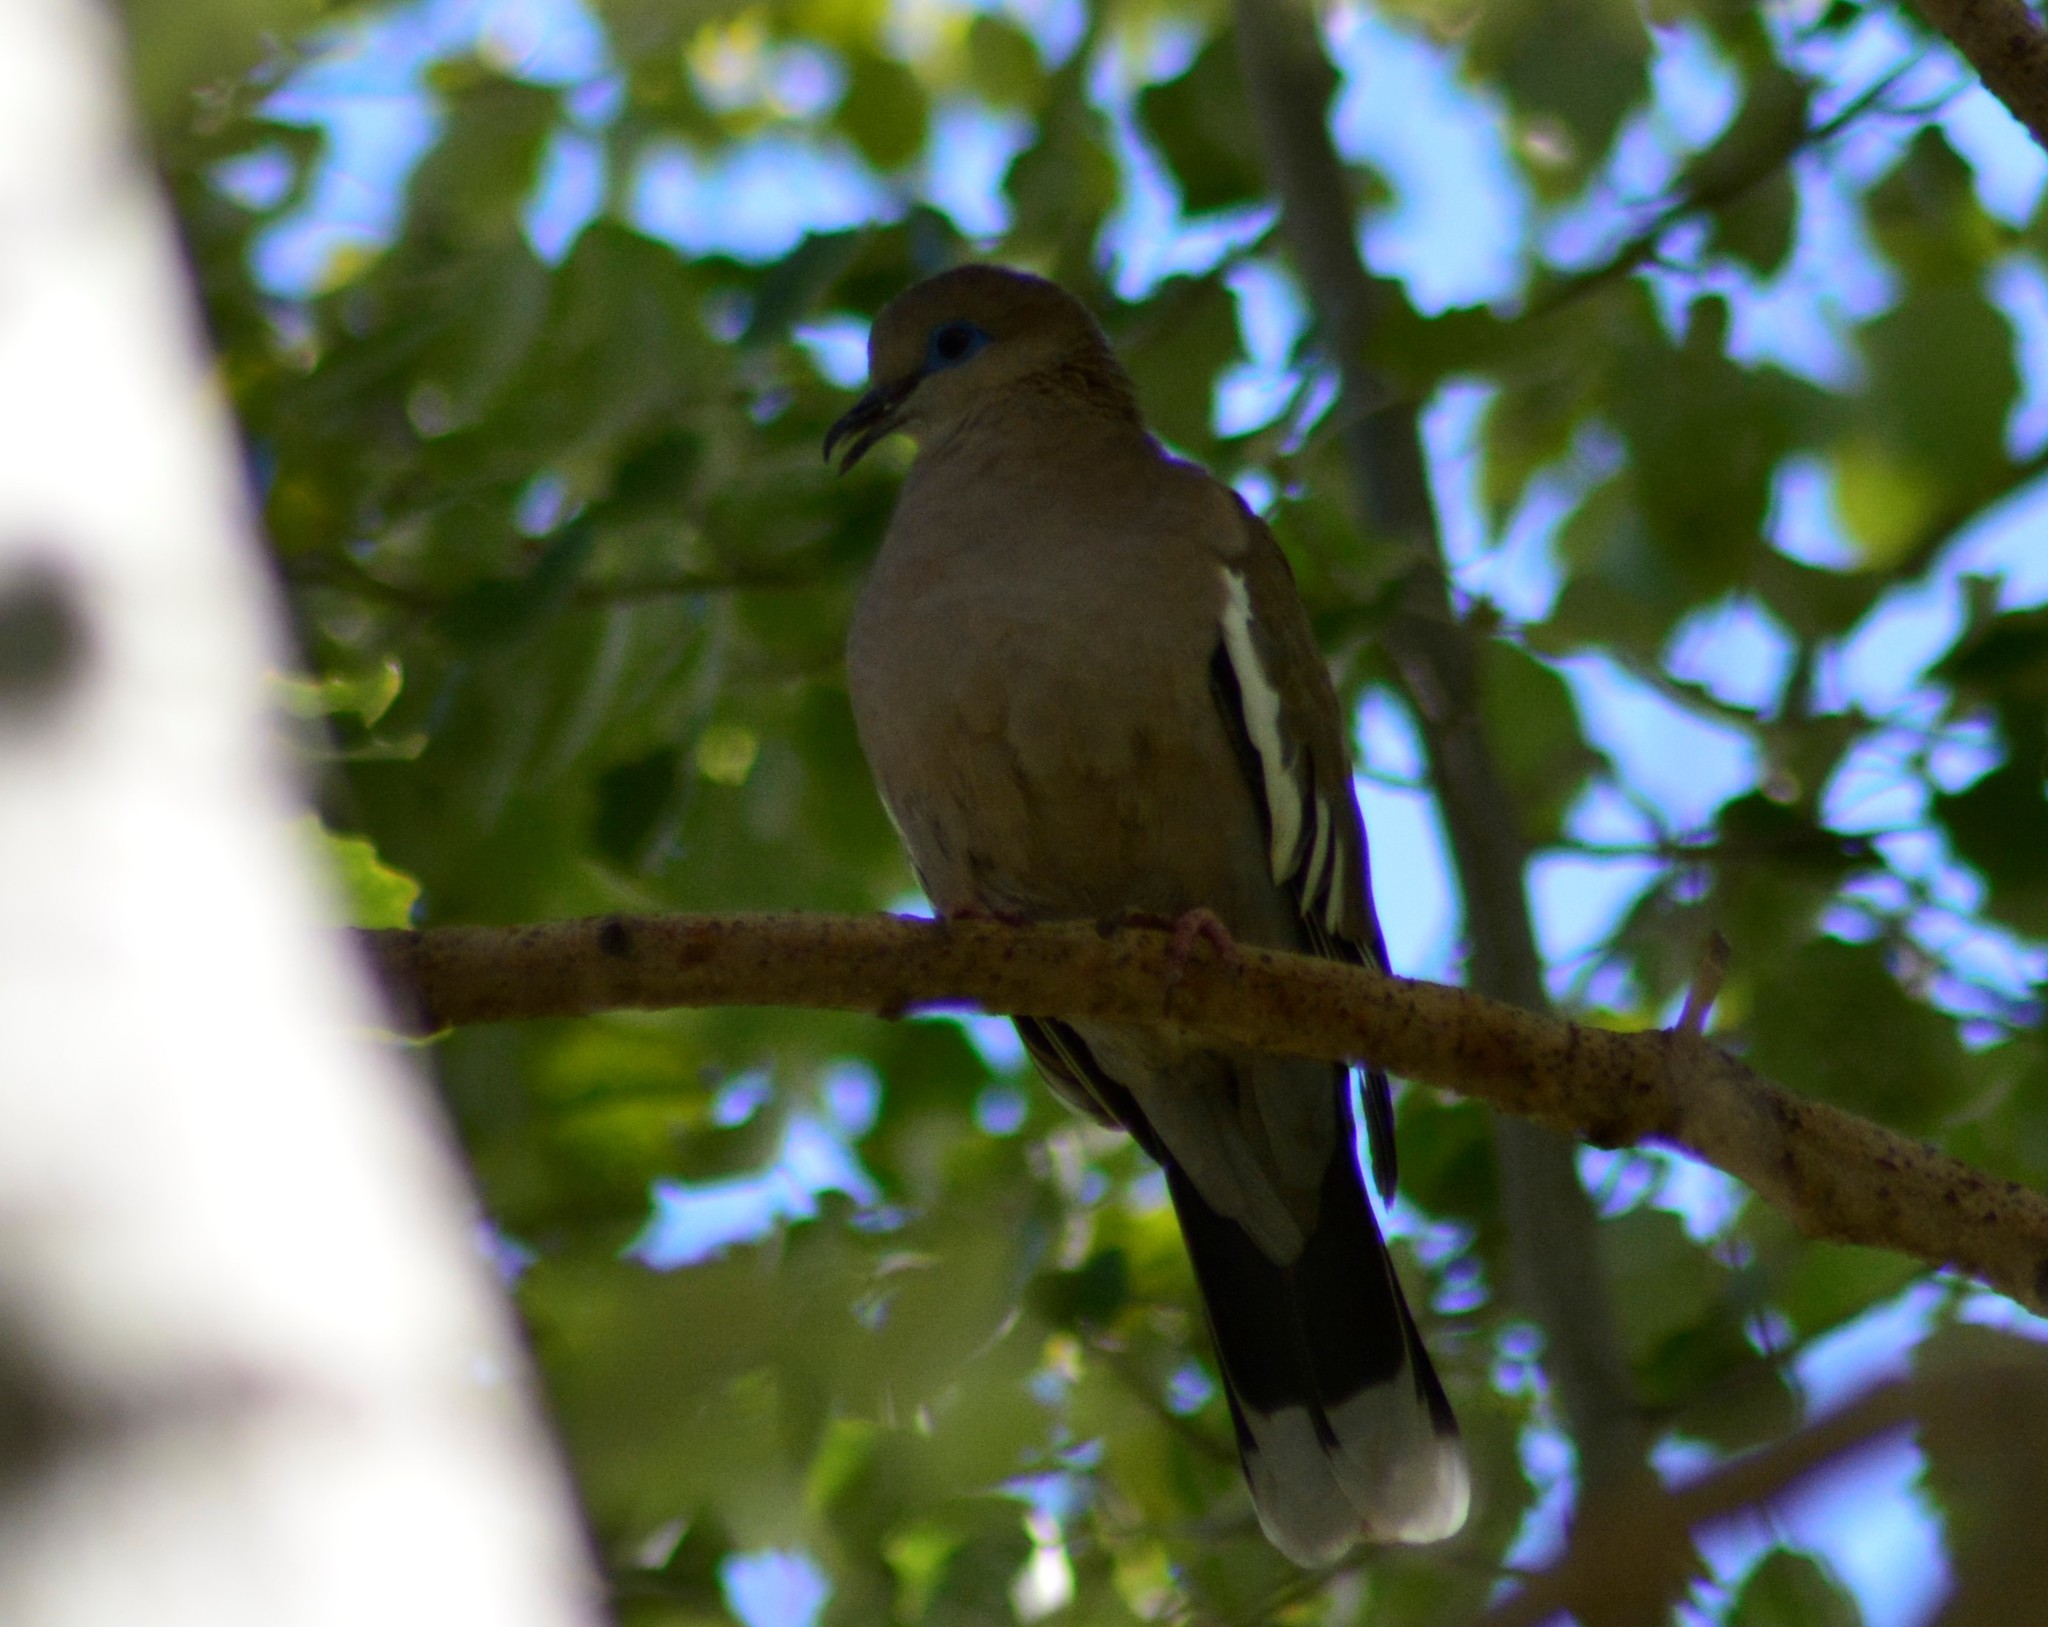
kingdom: Animalia
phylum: Chordata
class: Aves
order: Columbiformes
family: Columbidae
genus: Zenaida
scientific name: Zenaida meloda
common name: West peruvian dove
